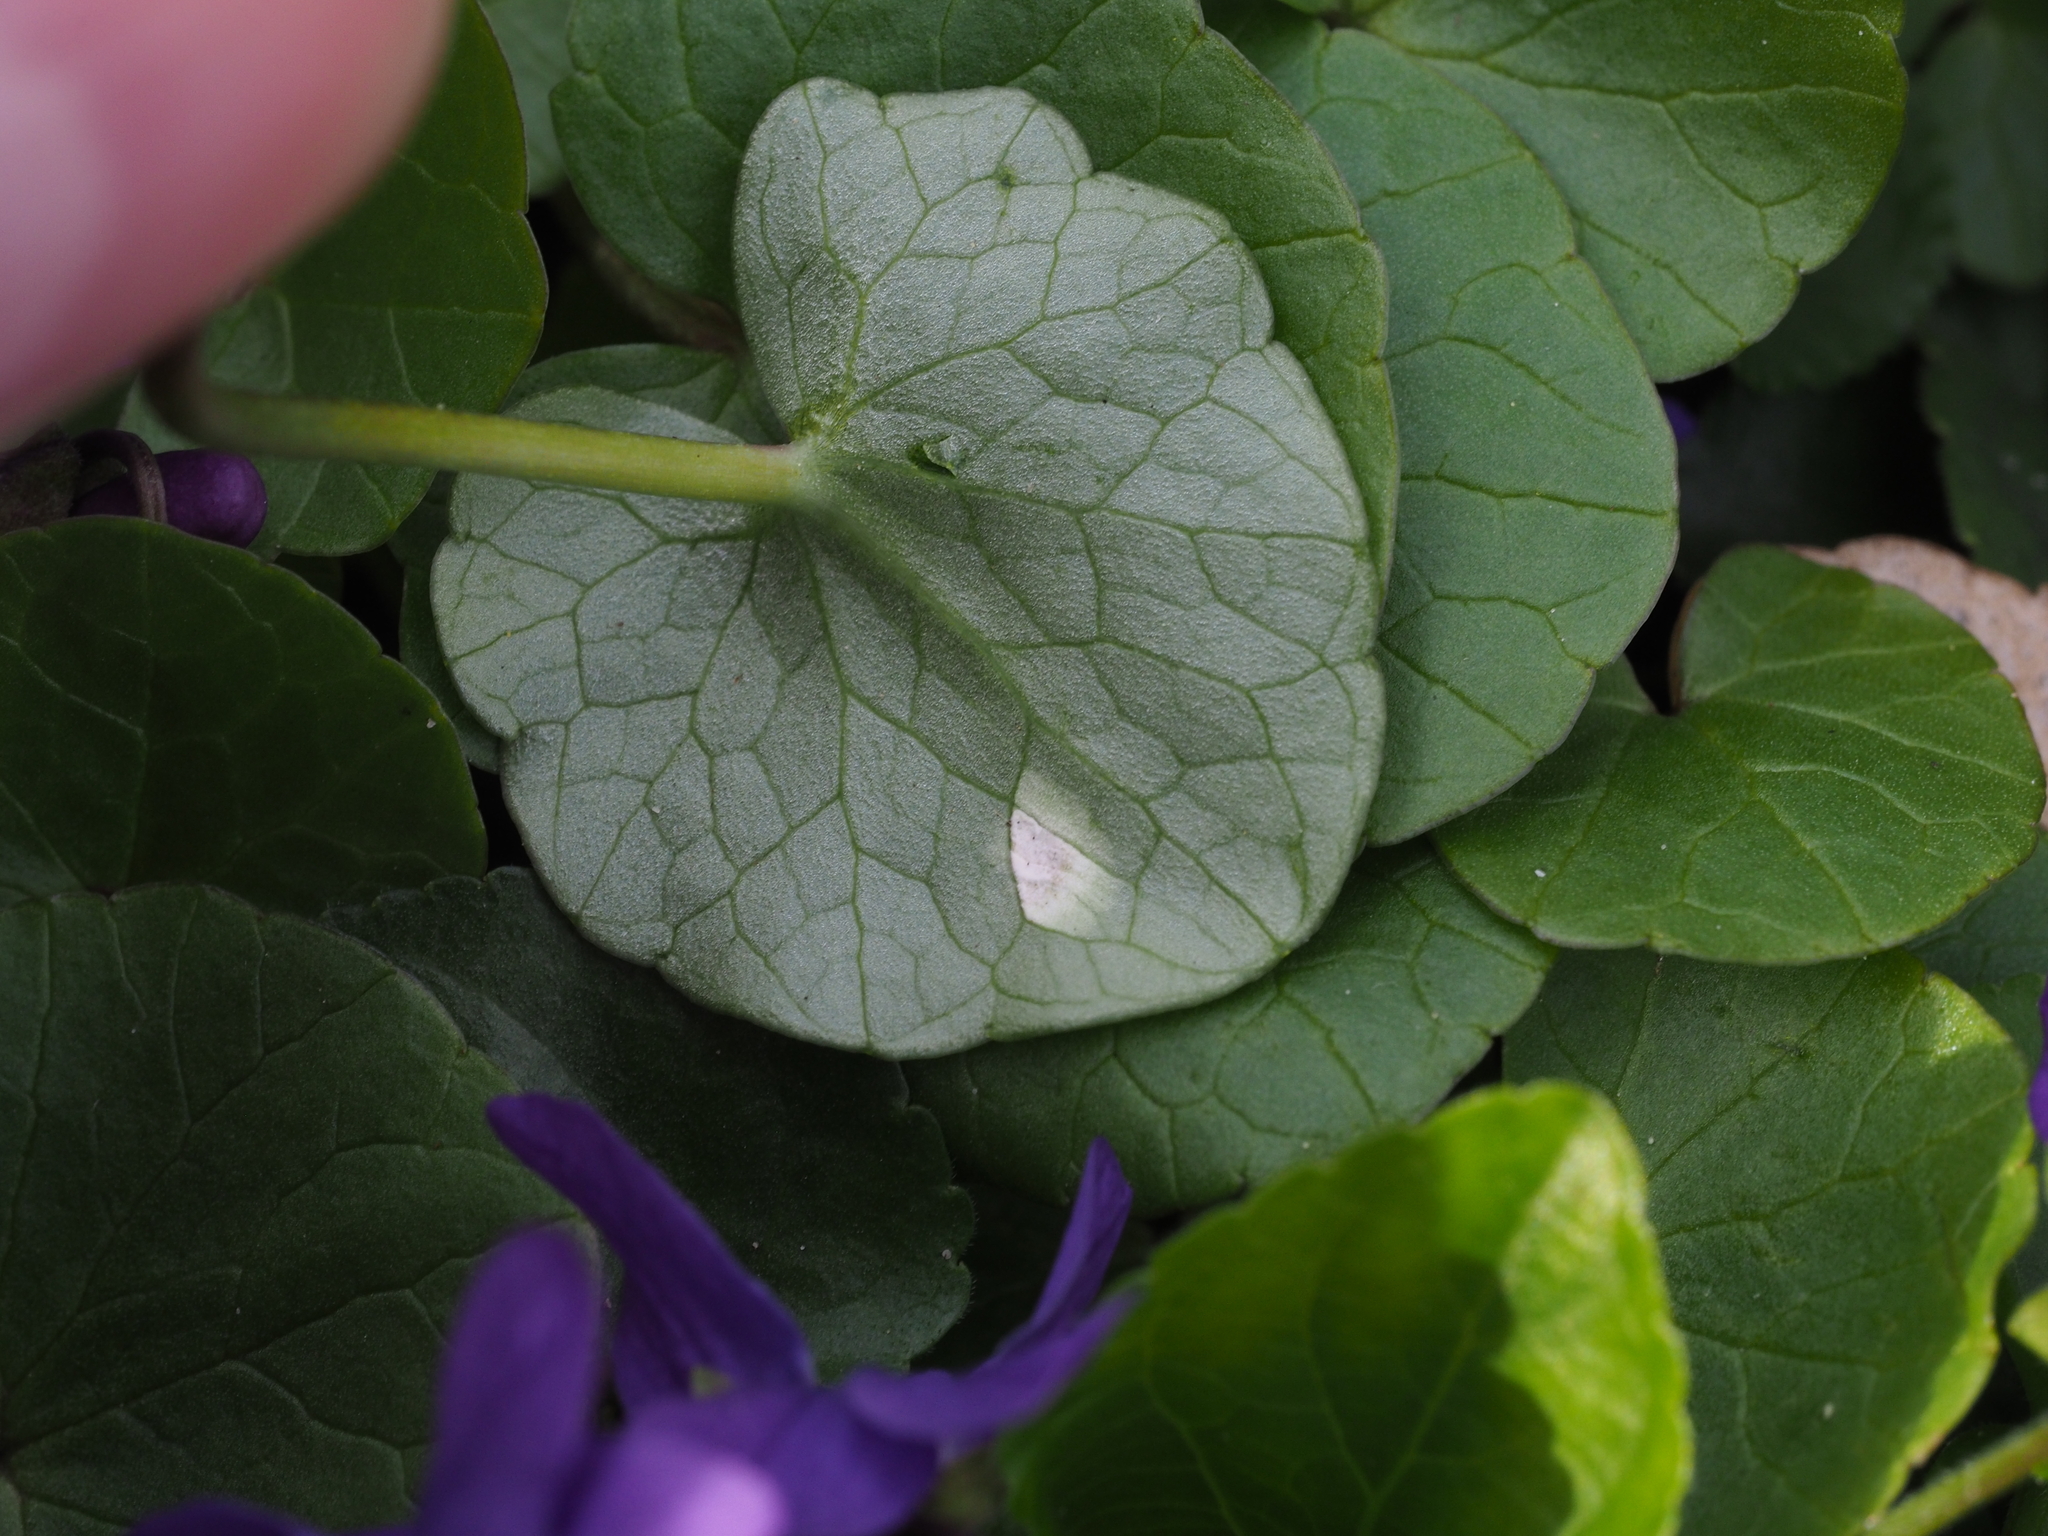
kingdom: Fungi
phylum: Basidiomycota
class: Exobasidiomycetes
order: Entylomatales
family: Entylomataceae
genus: Entyloma
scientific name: Entyloma ficariae
